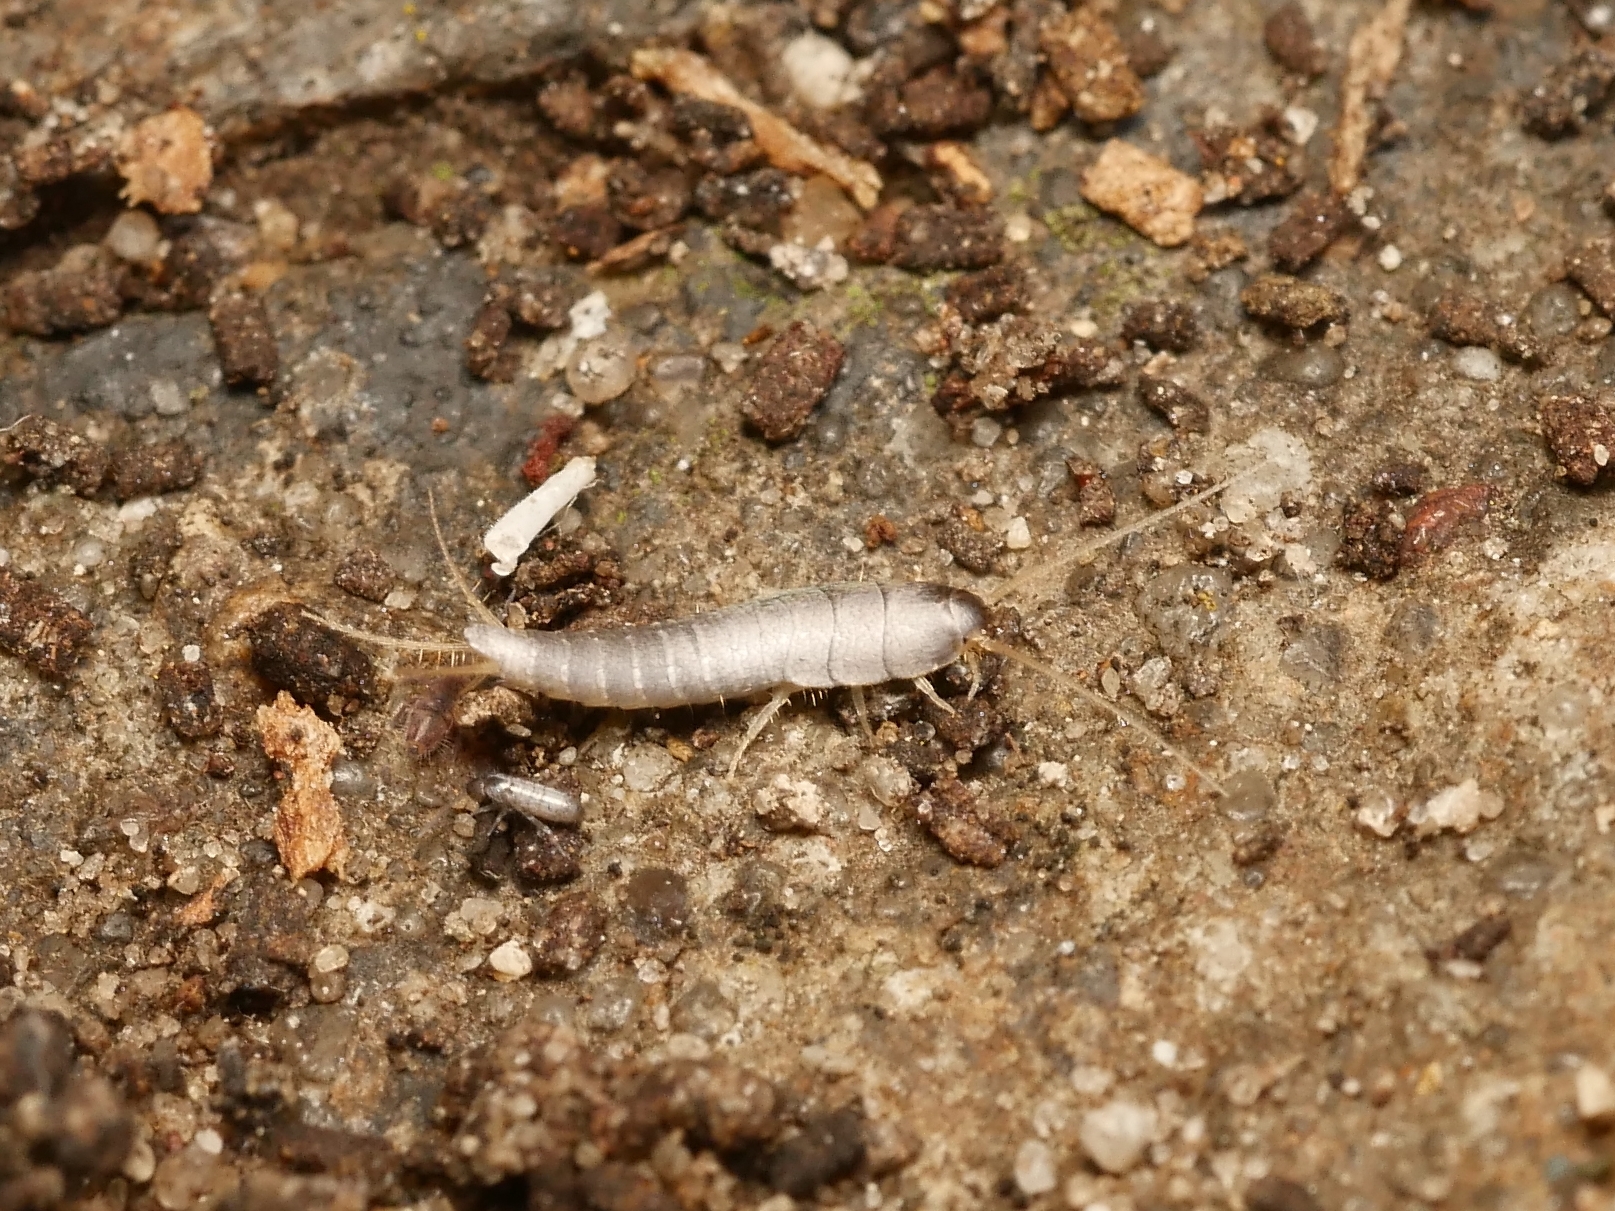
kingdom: Animalia
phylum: Arthropoda
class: Insecta
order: Zygentoma
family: Lepismatidae
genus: Lepisma
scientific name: Lepisma saccharinum
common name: Silverfish
